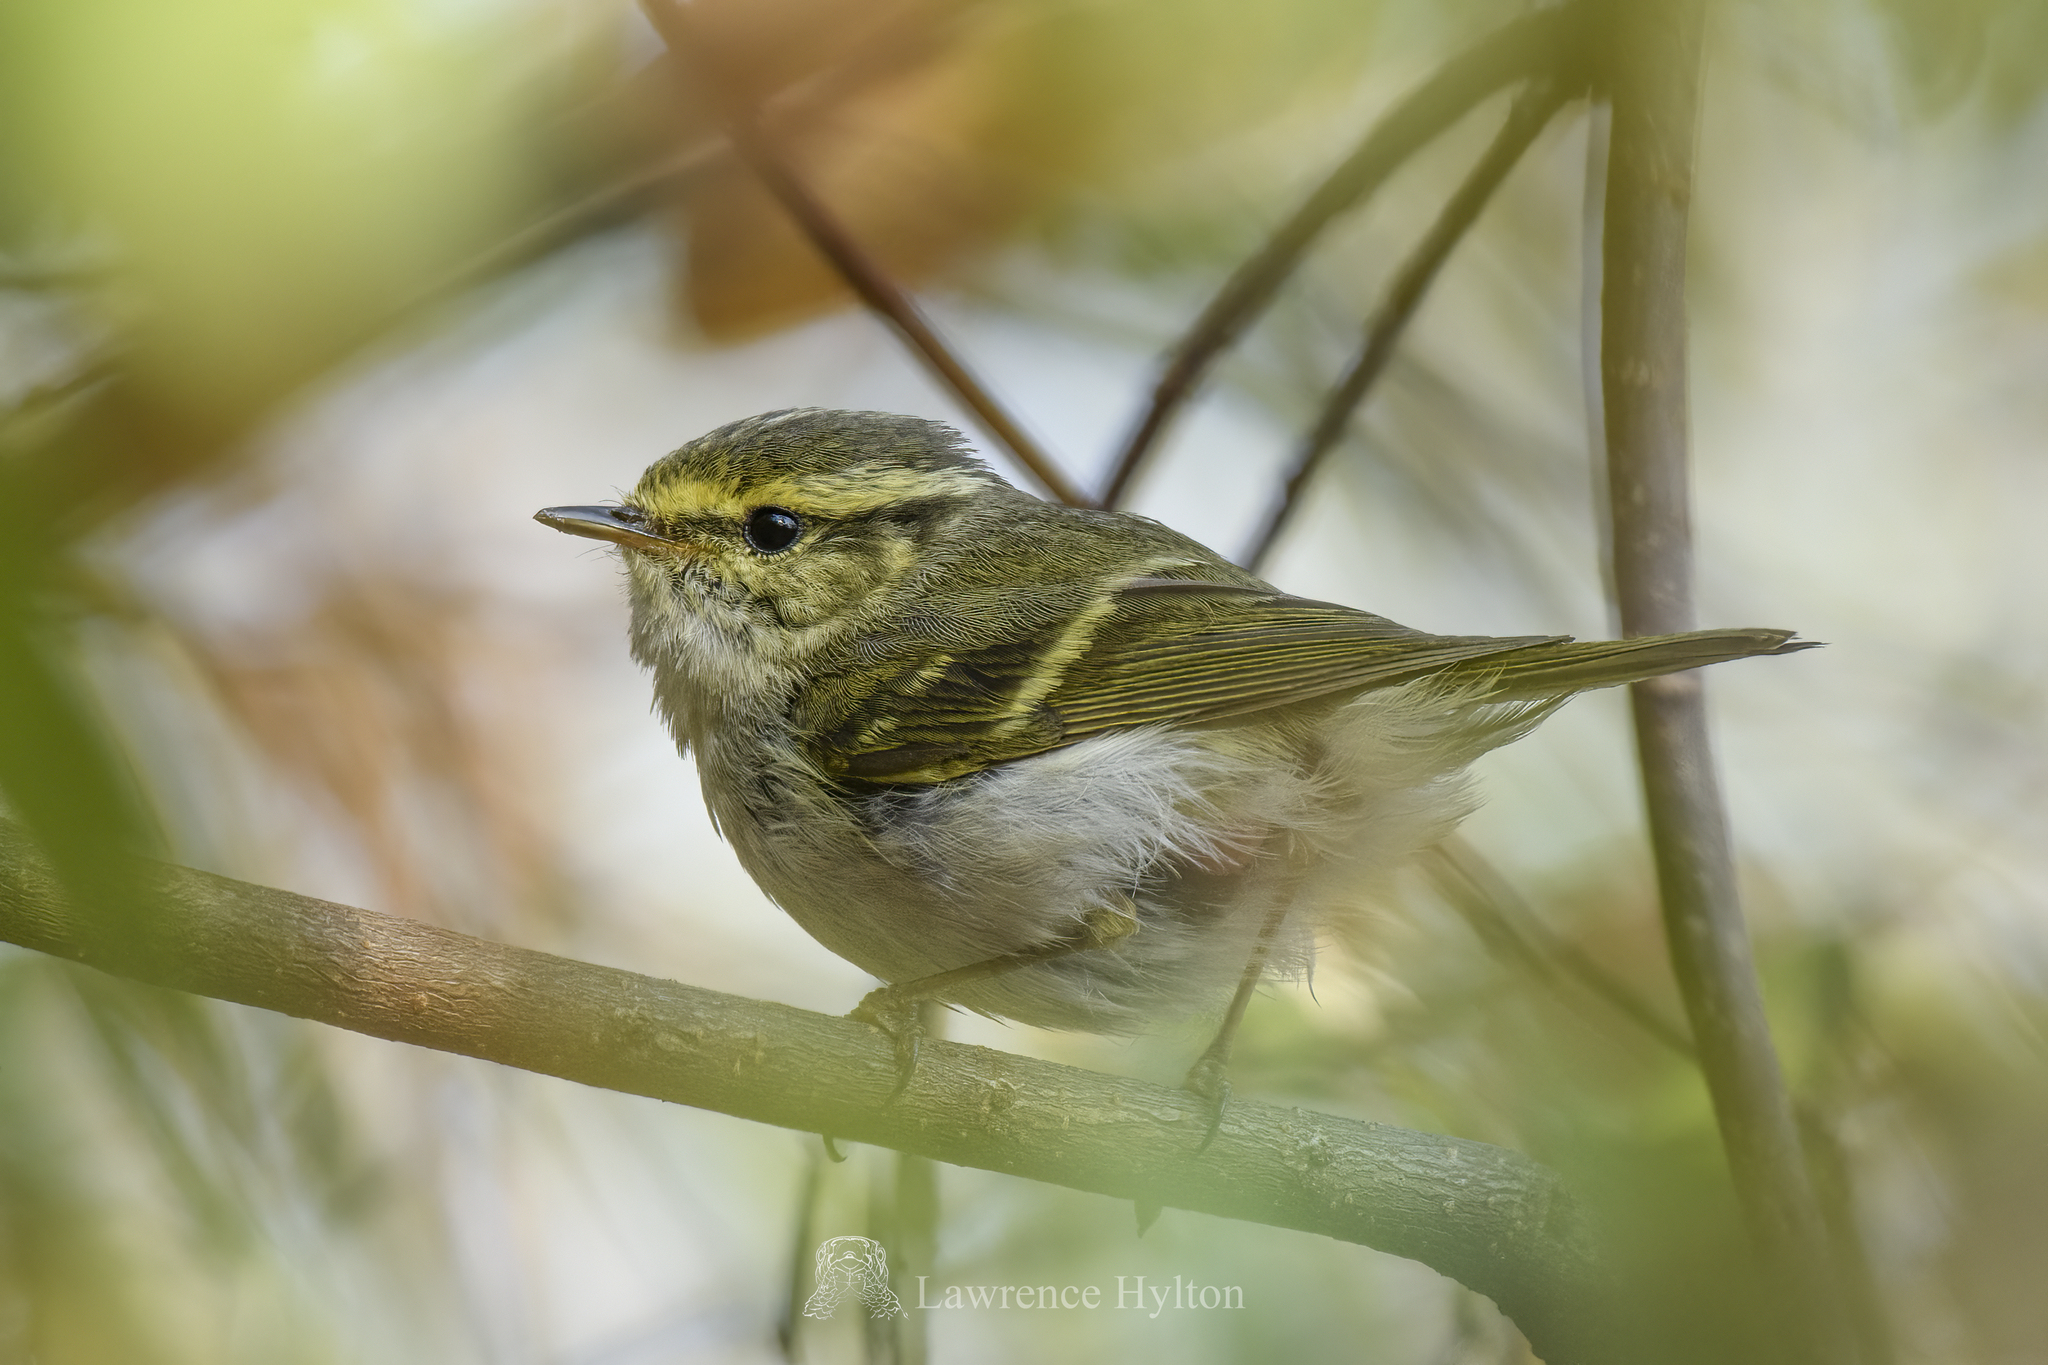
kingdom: Animalia
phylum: Chordata
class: Aves
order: Passeriformes
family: Phylloscopidae
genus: Phylloscopus
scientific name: Phylloscopus proregulus
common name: Pallas's leaf warbler
